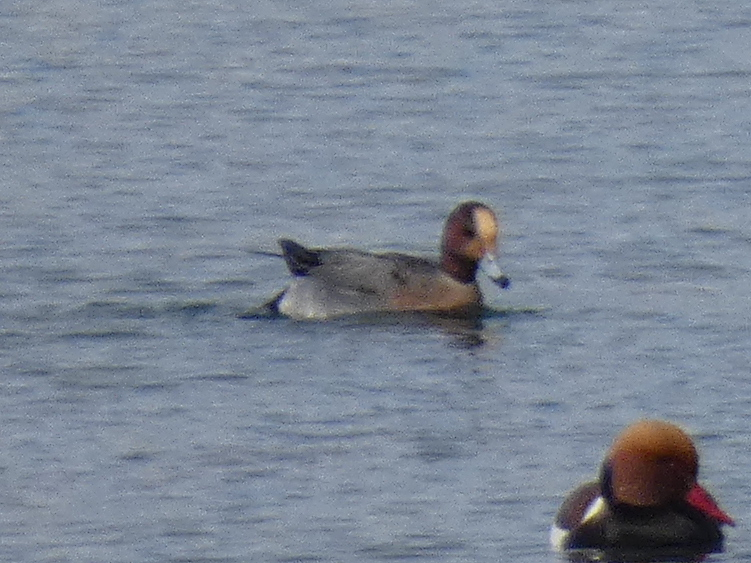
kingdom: Animalia
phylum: Chordata
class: Aves
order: Anseriformes
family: Anatidae
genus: Mareca
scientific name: Mareca penelope
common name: Eurasian wigeon
